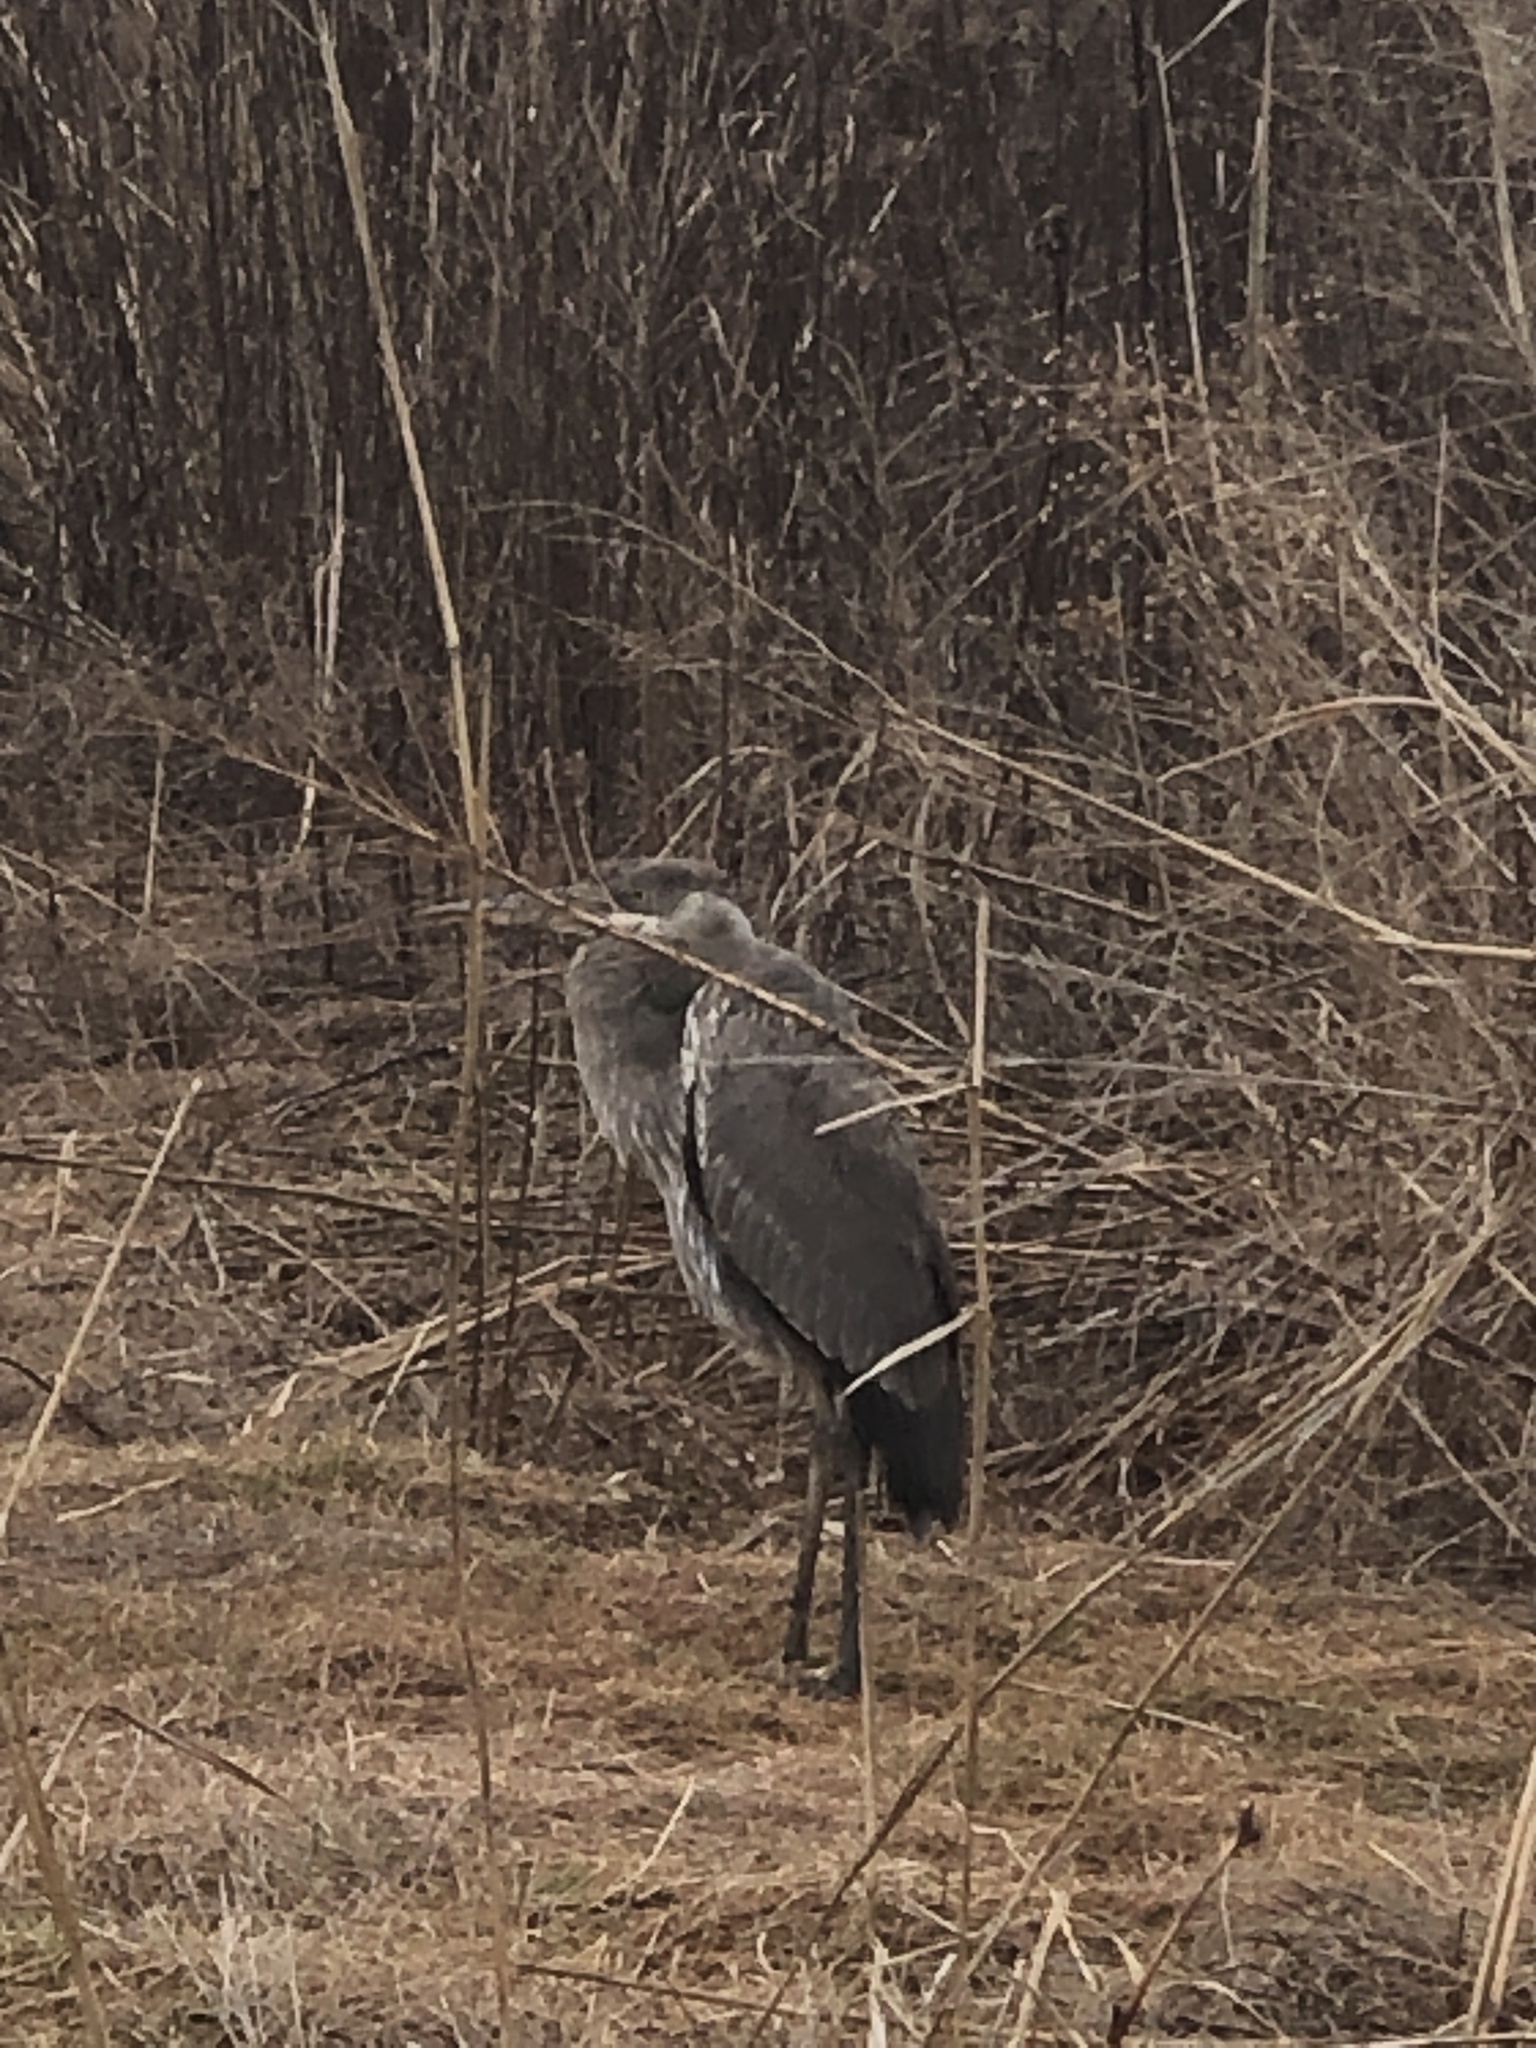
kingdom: Animalia
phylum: Chordata
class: Aves
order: Pelecaniformes
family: Ardeidae
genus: Ardea
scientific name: Ardea herodias
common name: Great blue heron
